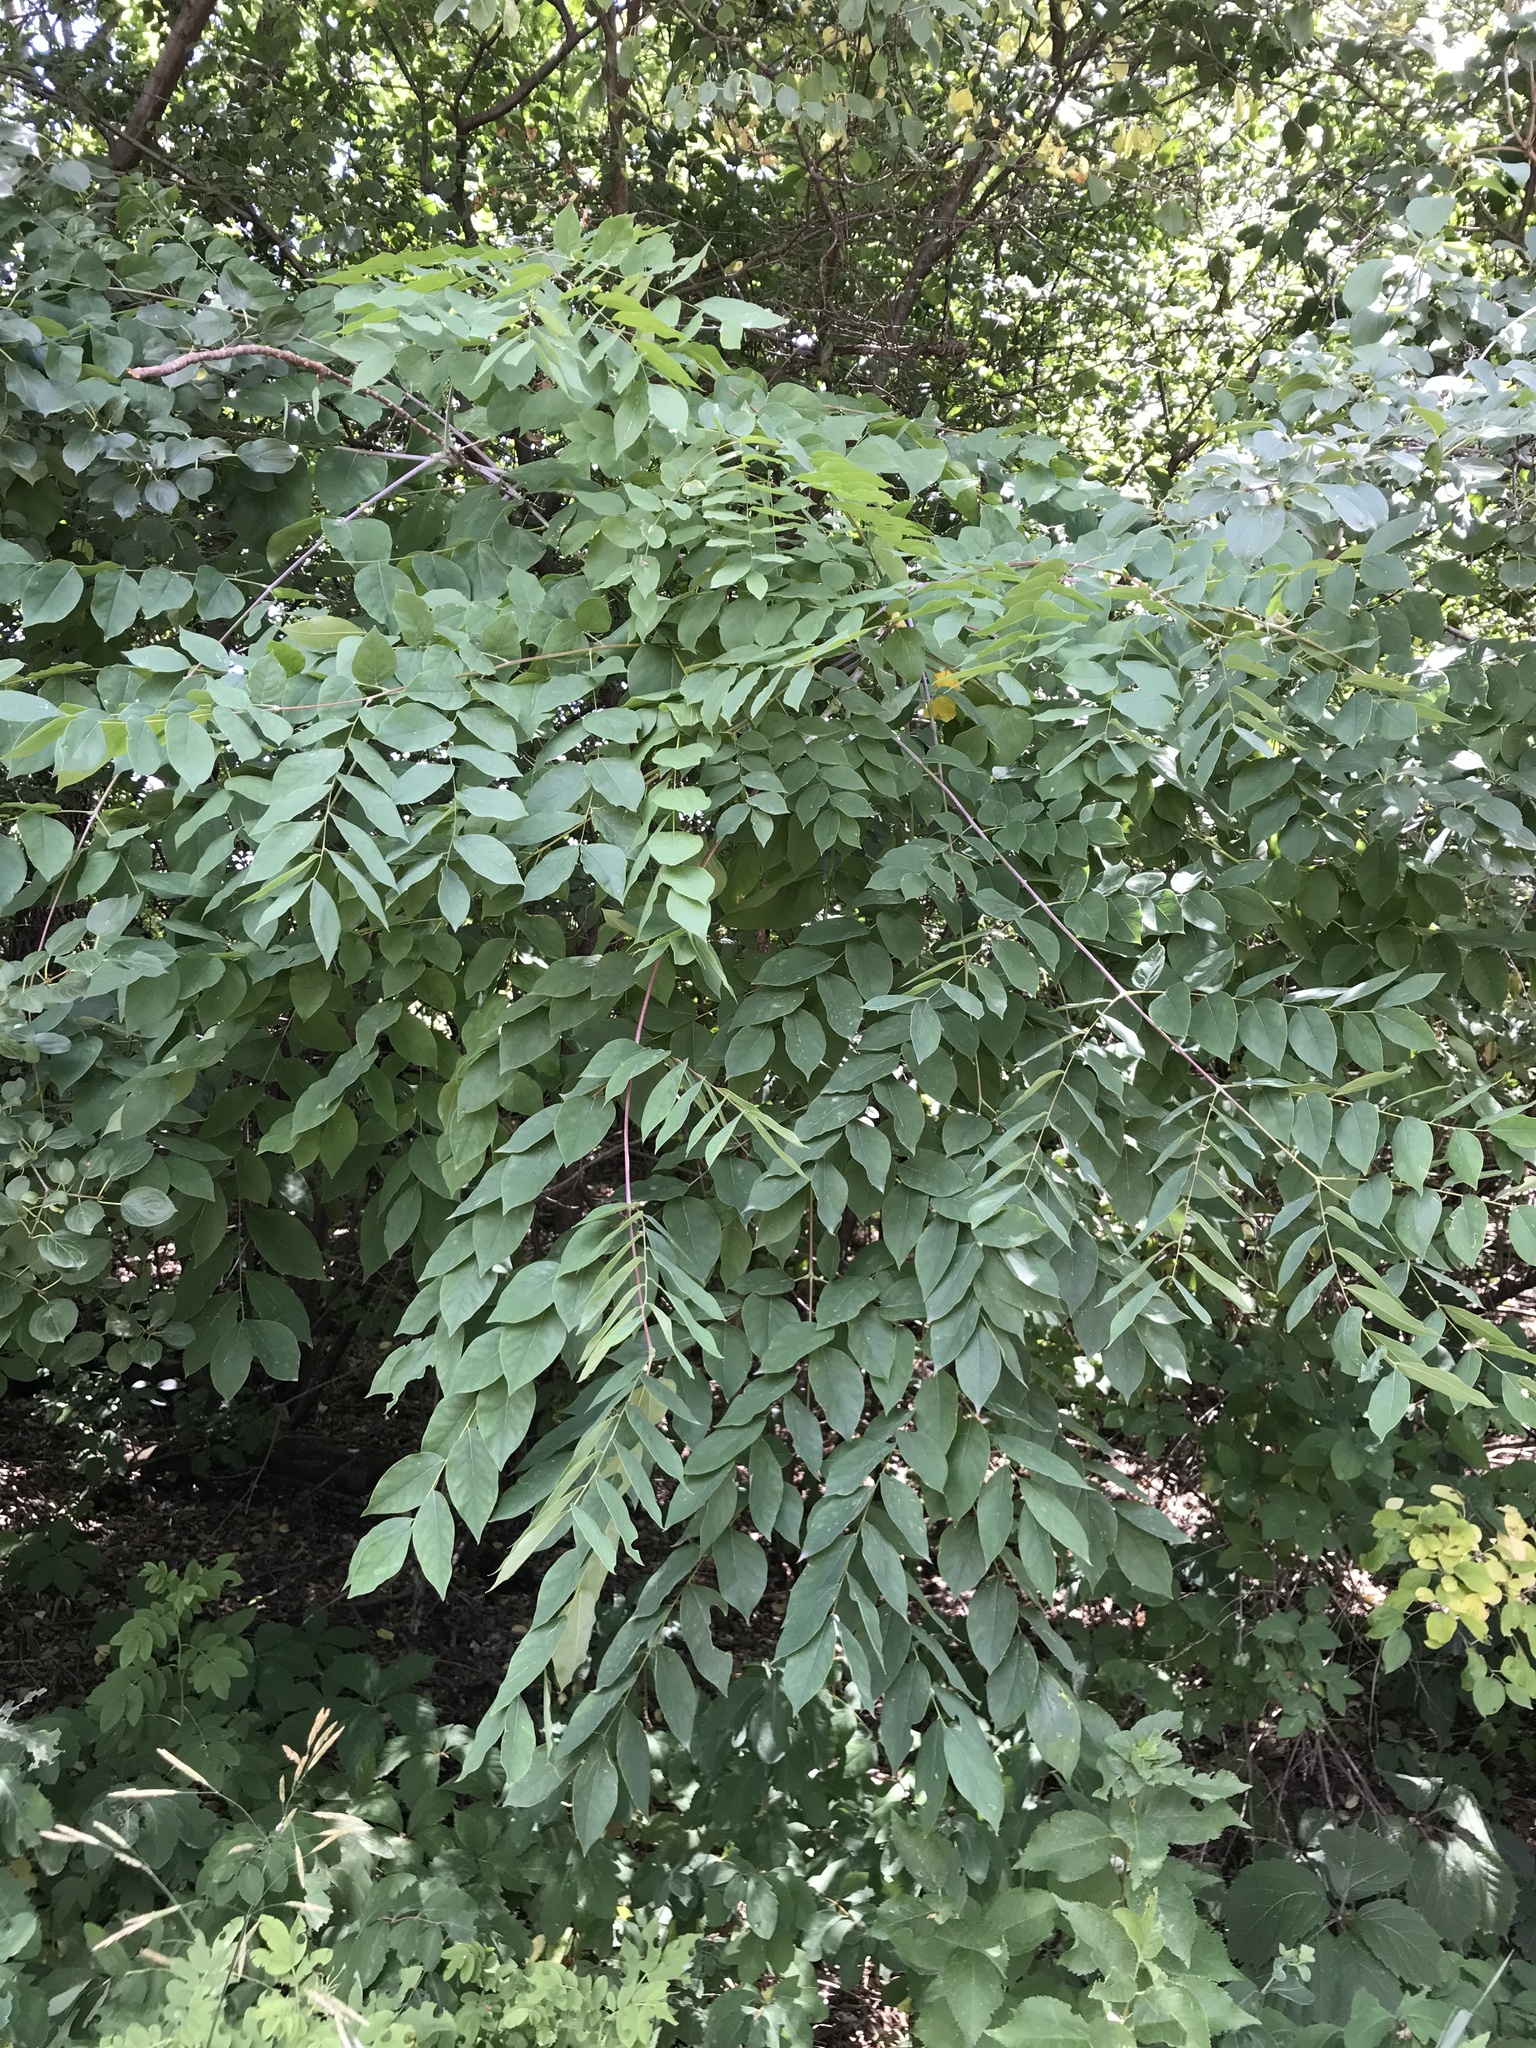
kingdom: Plantae
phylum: Tracheophyta
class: Magnoliopsida
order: Fabales
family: Fabaceae
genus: Gymnocladus
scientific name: Gymnocladus dioicus
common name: Kentucky coffee-tree
